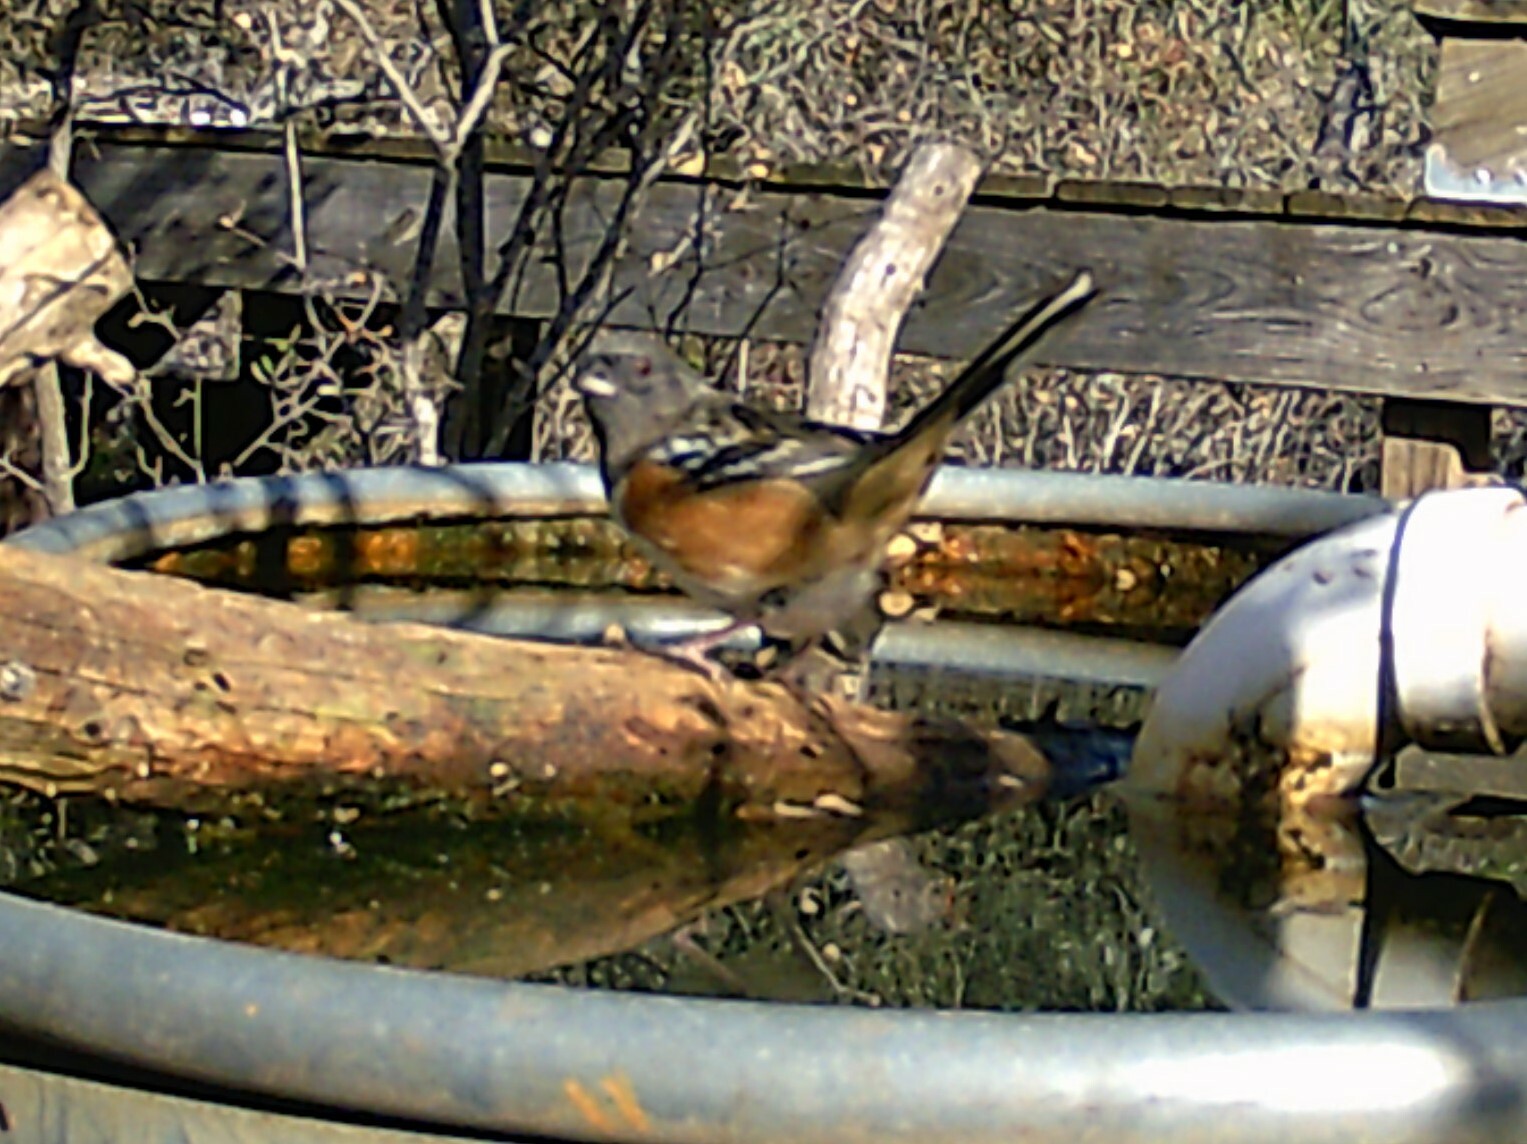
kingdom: Animalia
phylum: Chordata
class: Aves
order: Passeriformes
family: Passerellidae
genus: Pipilo
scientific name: Pipilo maculatus
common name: Spotted towhee
